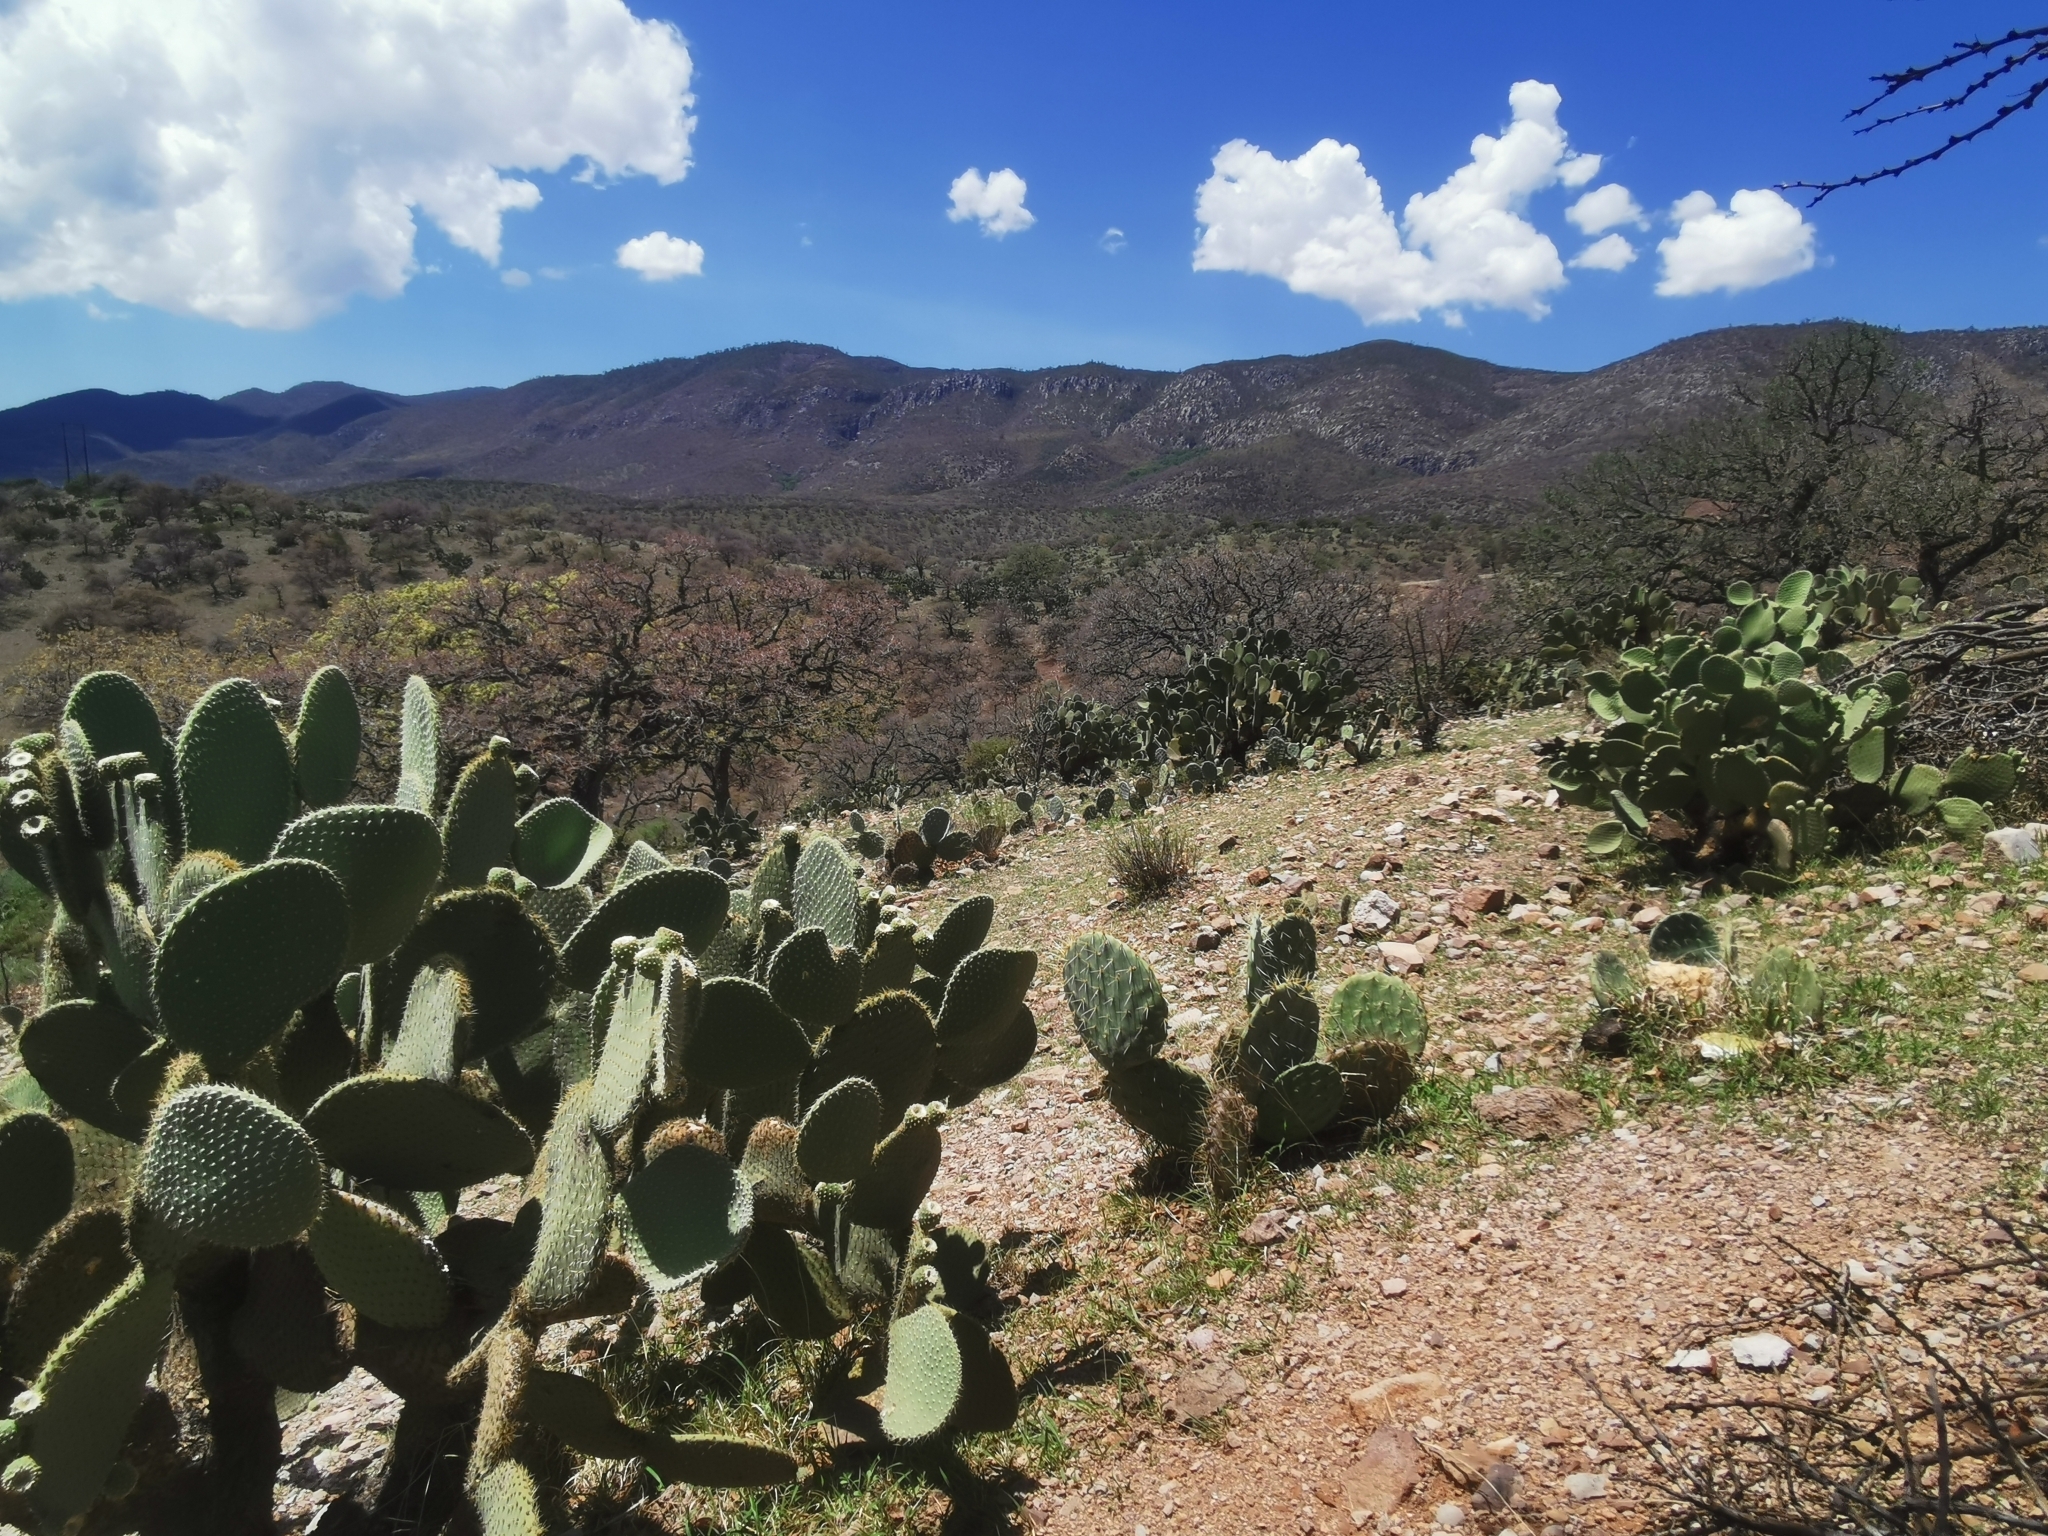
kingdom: Plantae
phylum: Tracheophyta
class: Magnoliopsida
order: Caryophyllales
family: Cactaceae
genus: Opuntia
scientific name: Opuntia leucotricha
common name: Arborescent pricklypear
